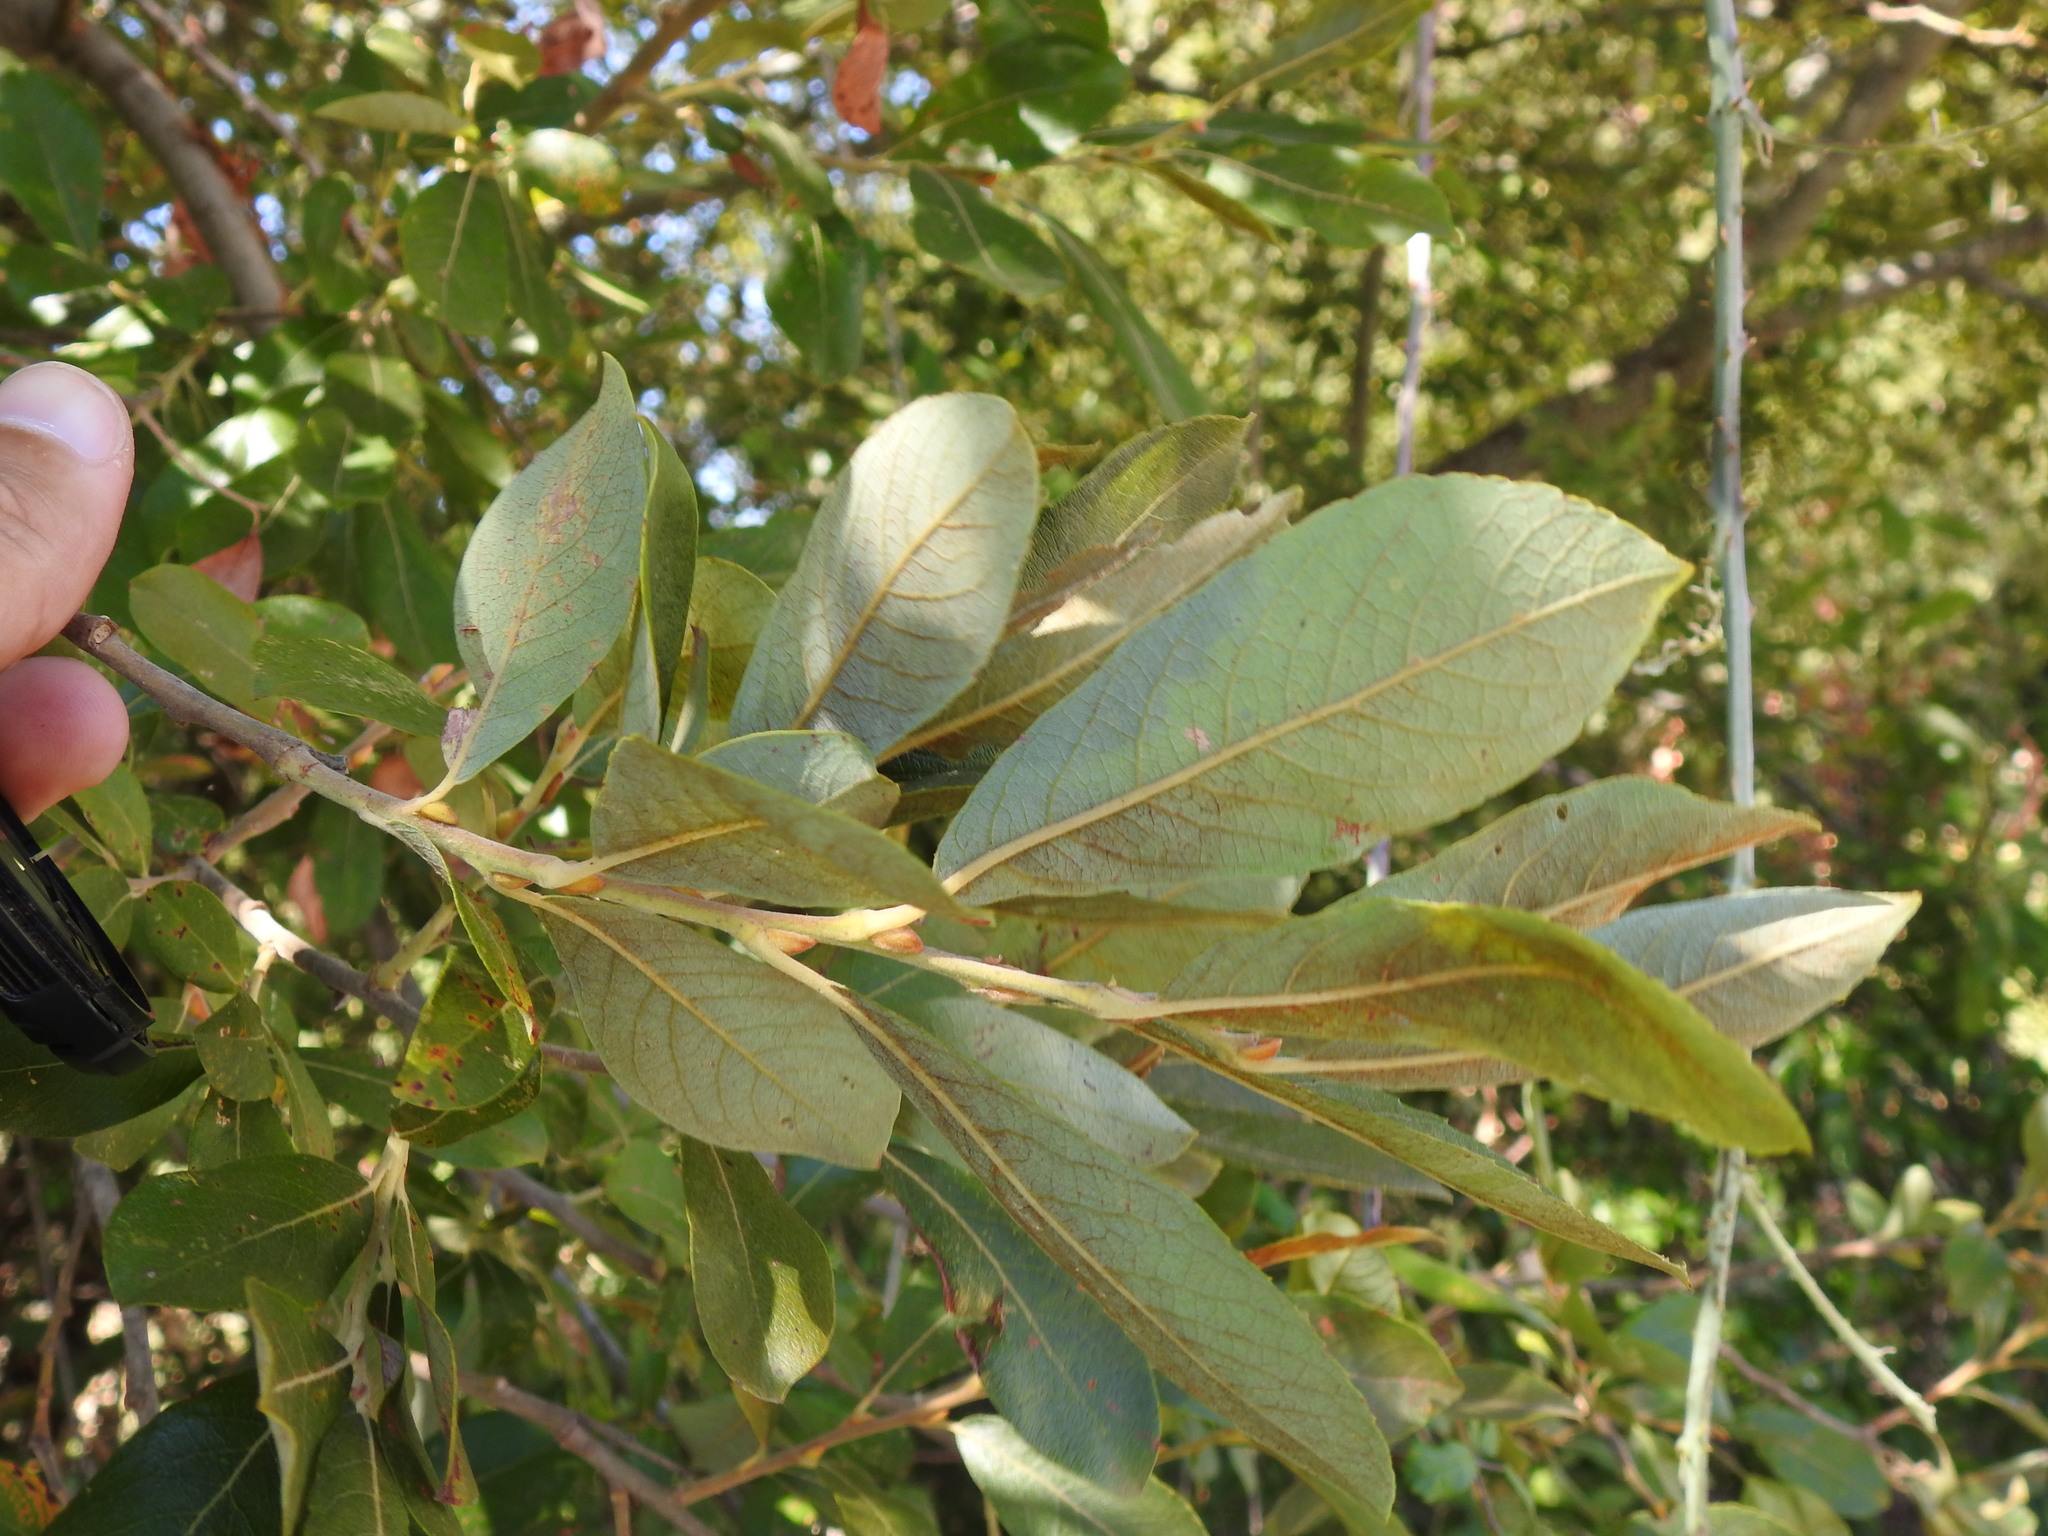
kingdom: Plantae
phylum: Tracheophyta
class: Magnoliopsida
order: Malpighiales
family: Salicaceae
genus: Salix
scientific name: Salix atrocinerea
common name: Rusty willow
